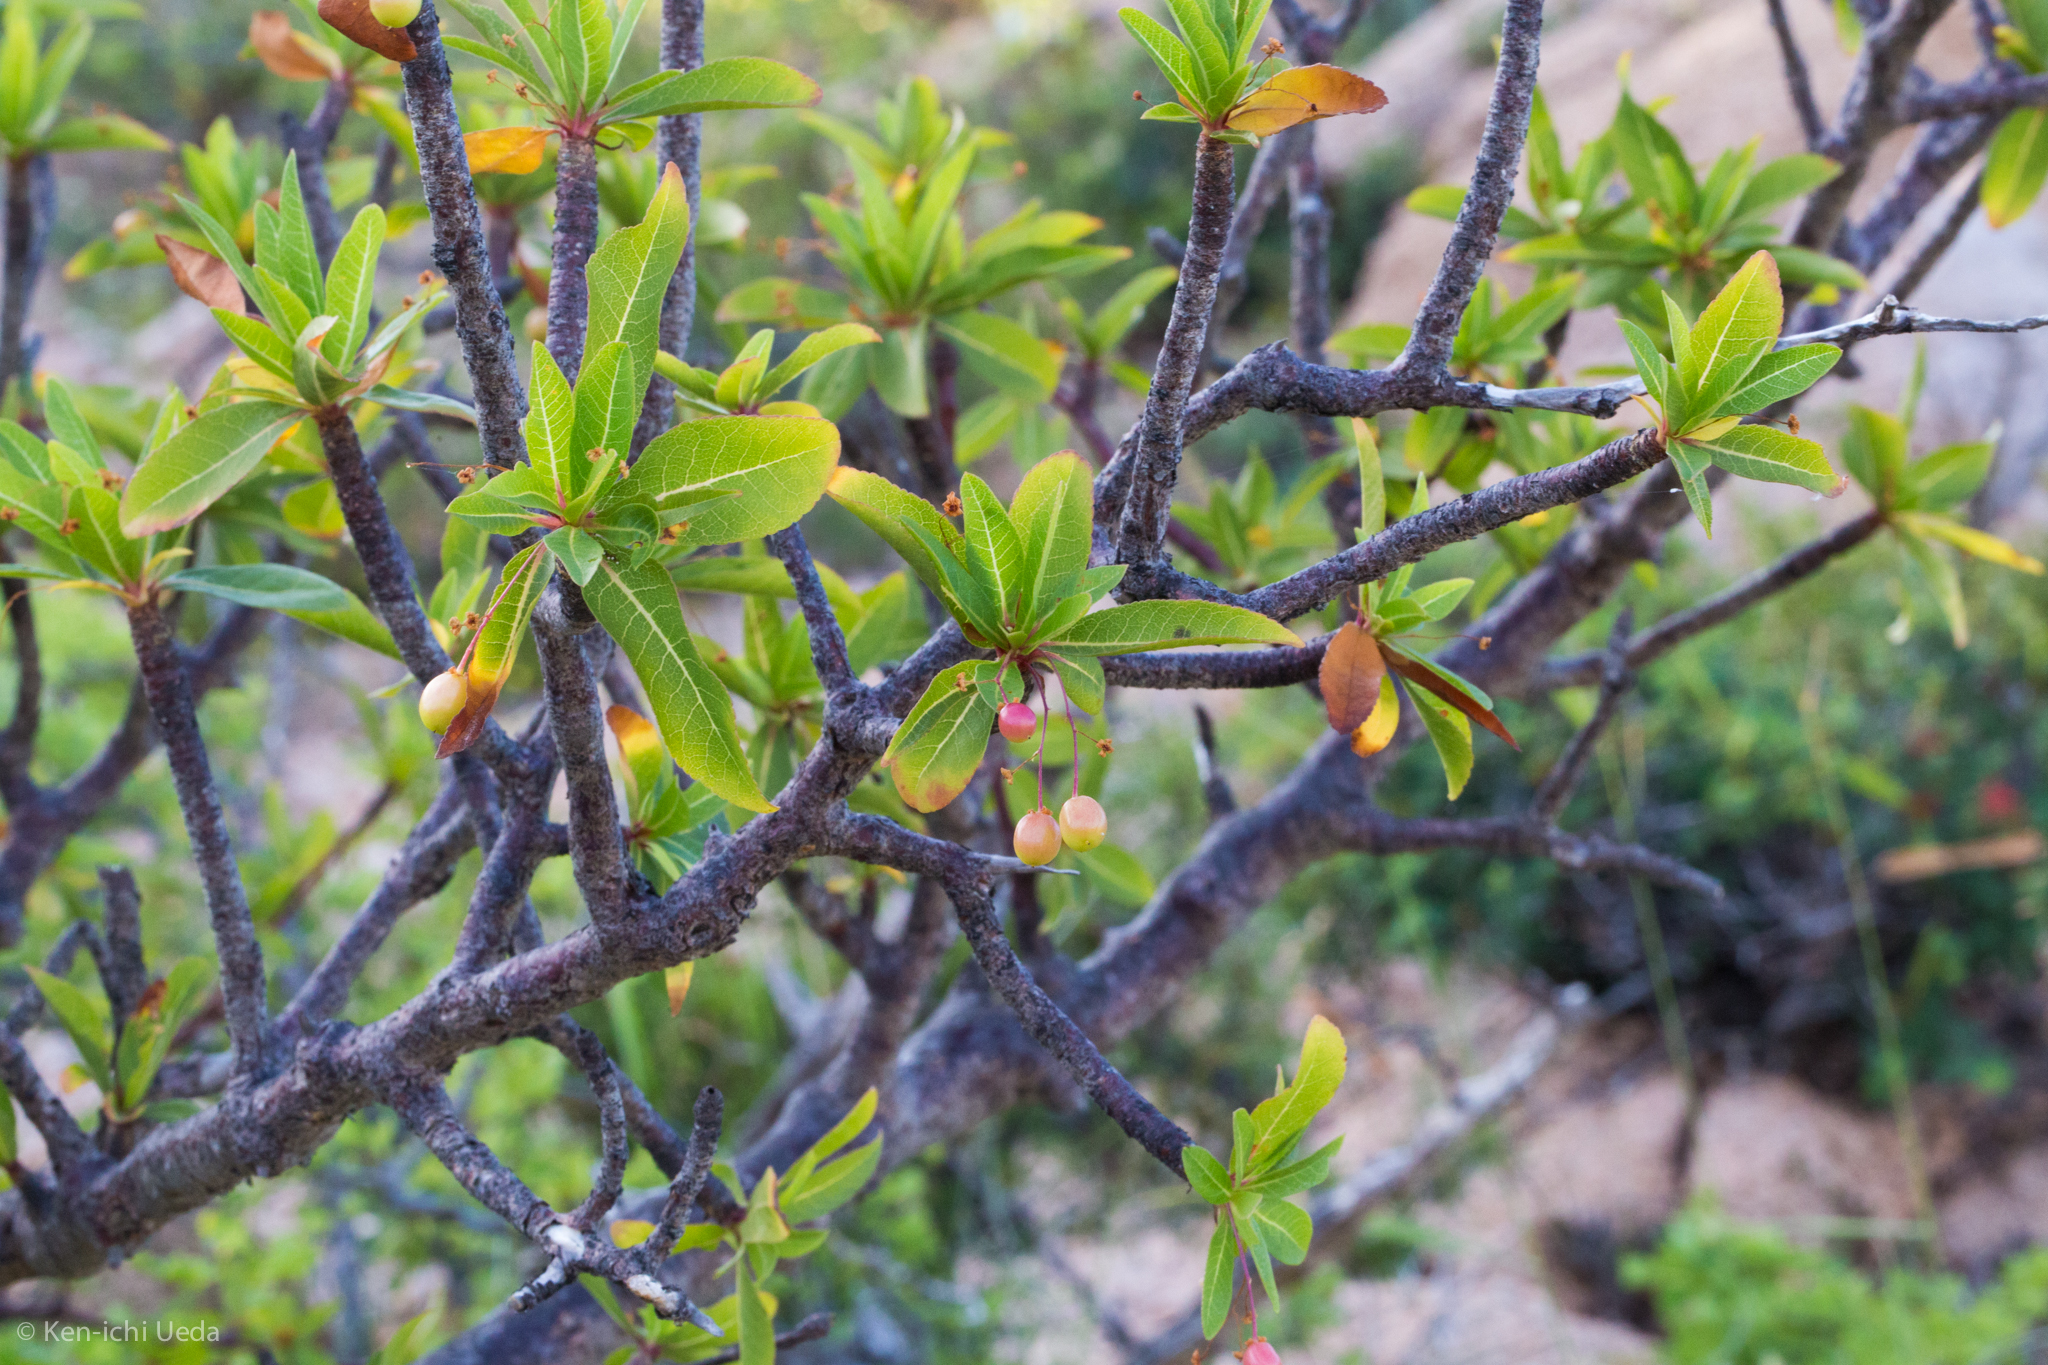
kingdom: Plantae
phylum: Tracheophyta
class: Magnoliopsida
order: Sapindales
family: Burseraceae
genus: Bursera
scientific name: Bursera cerasiifolia
